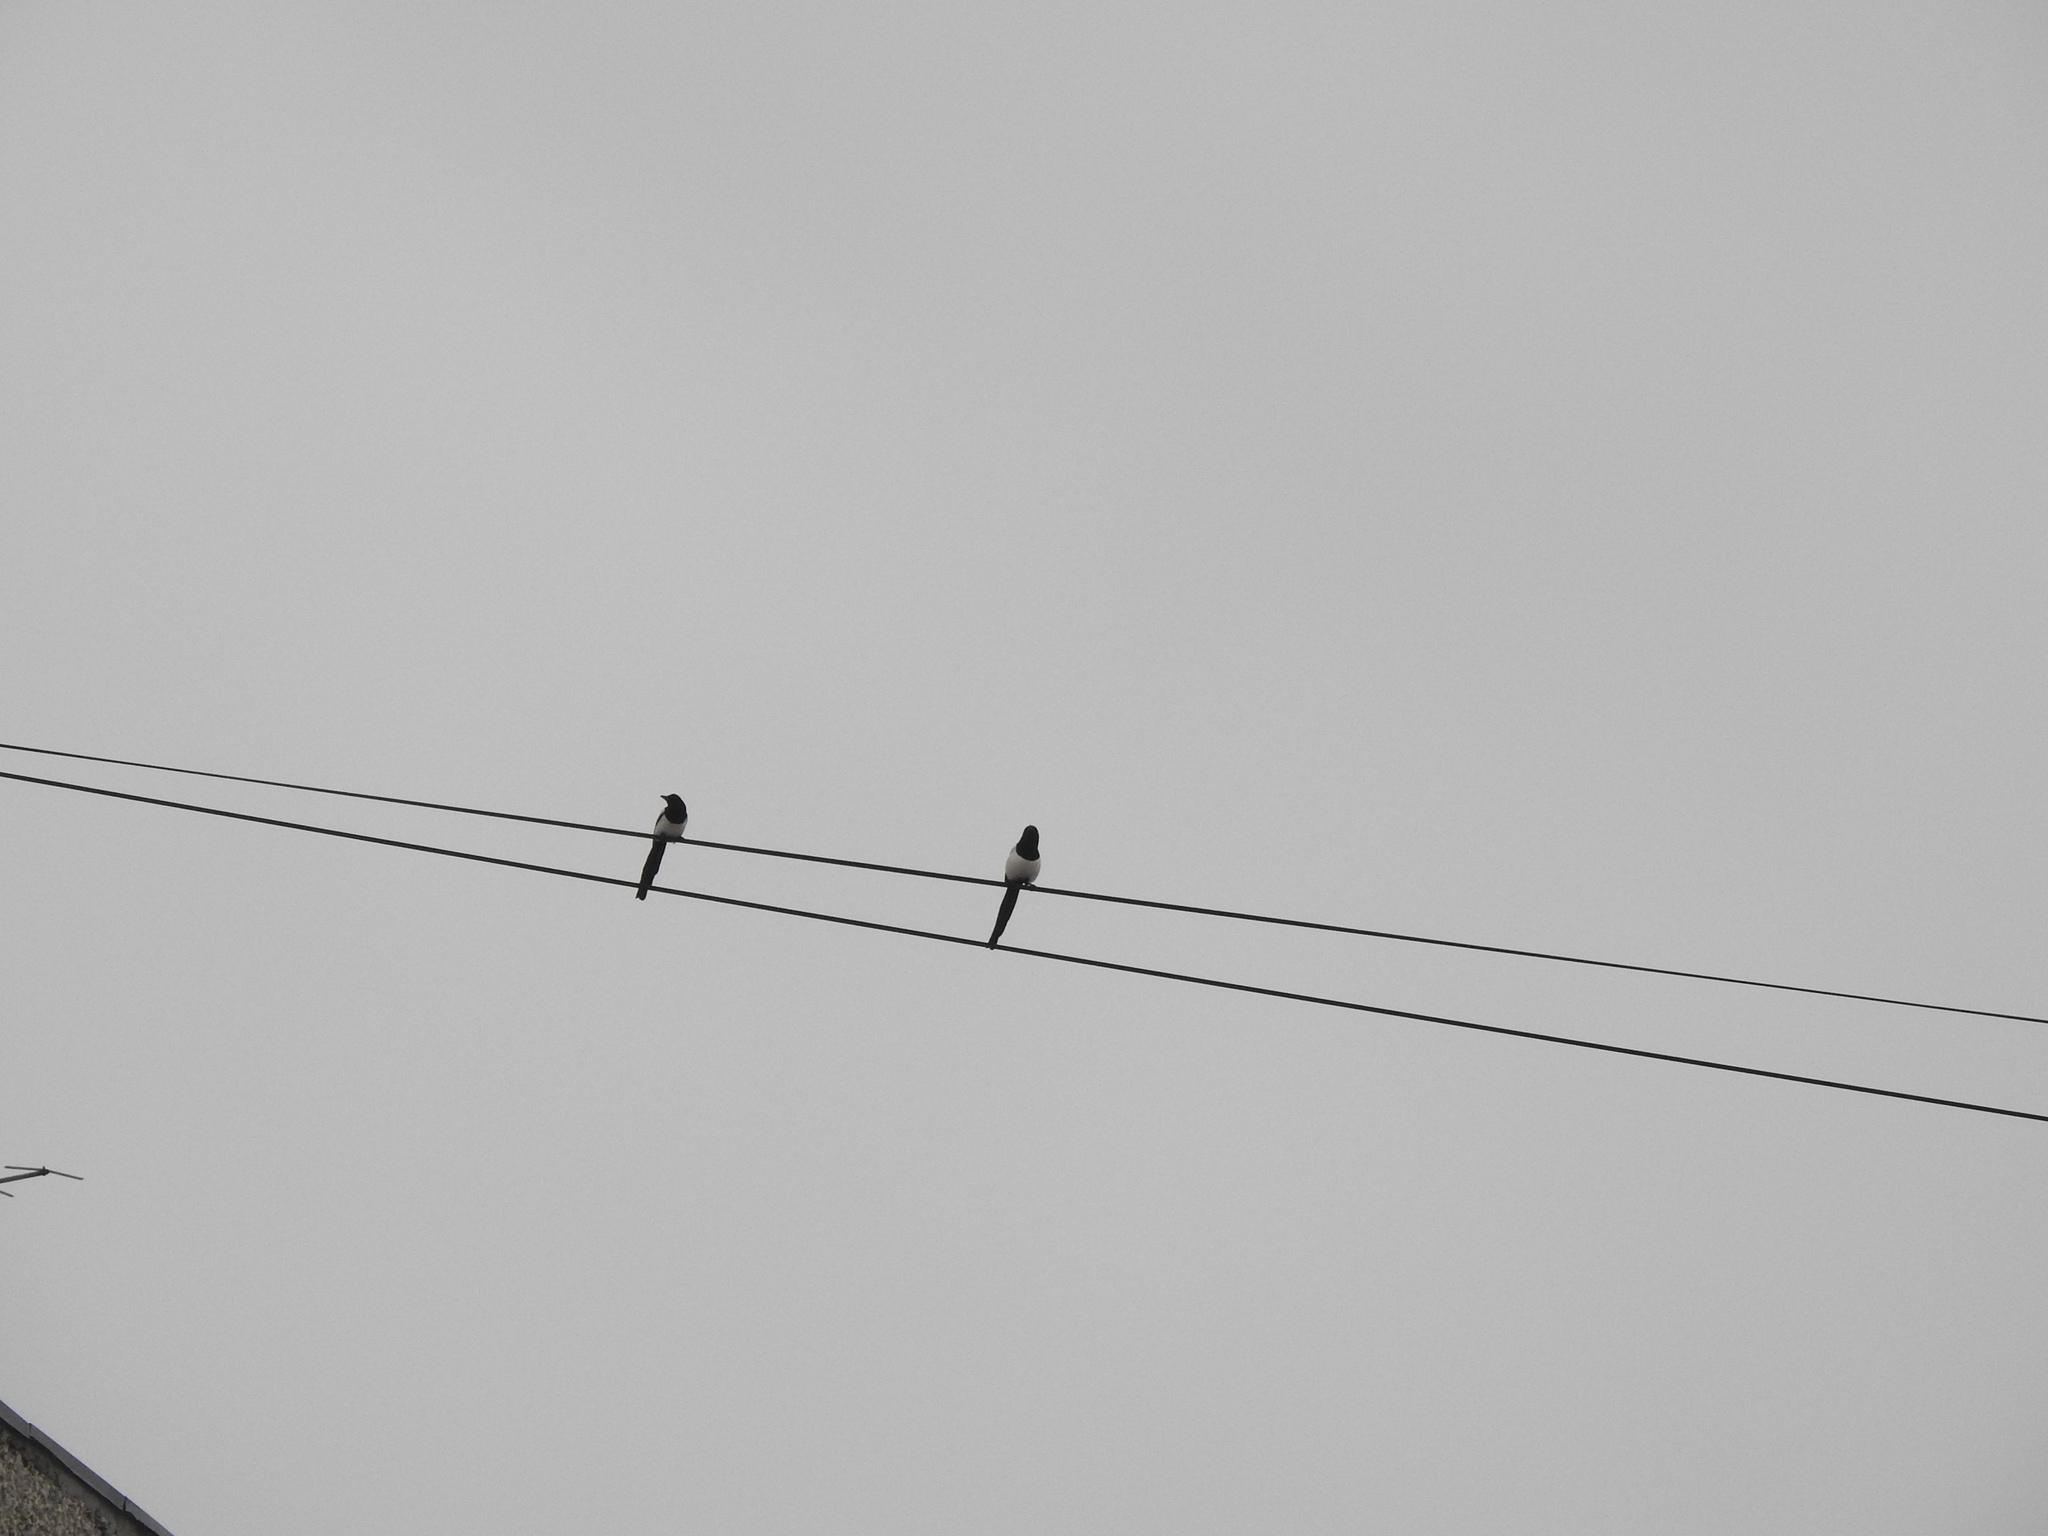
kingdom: Animalia
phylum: Chordata
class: Aves
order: Passeriformes
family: Corvidae
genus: Pica
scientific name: Pica pica
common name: Eurasian magpie
